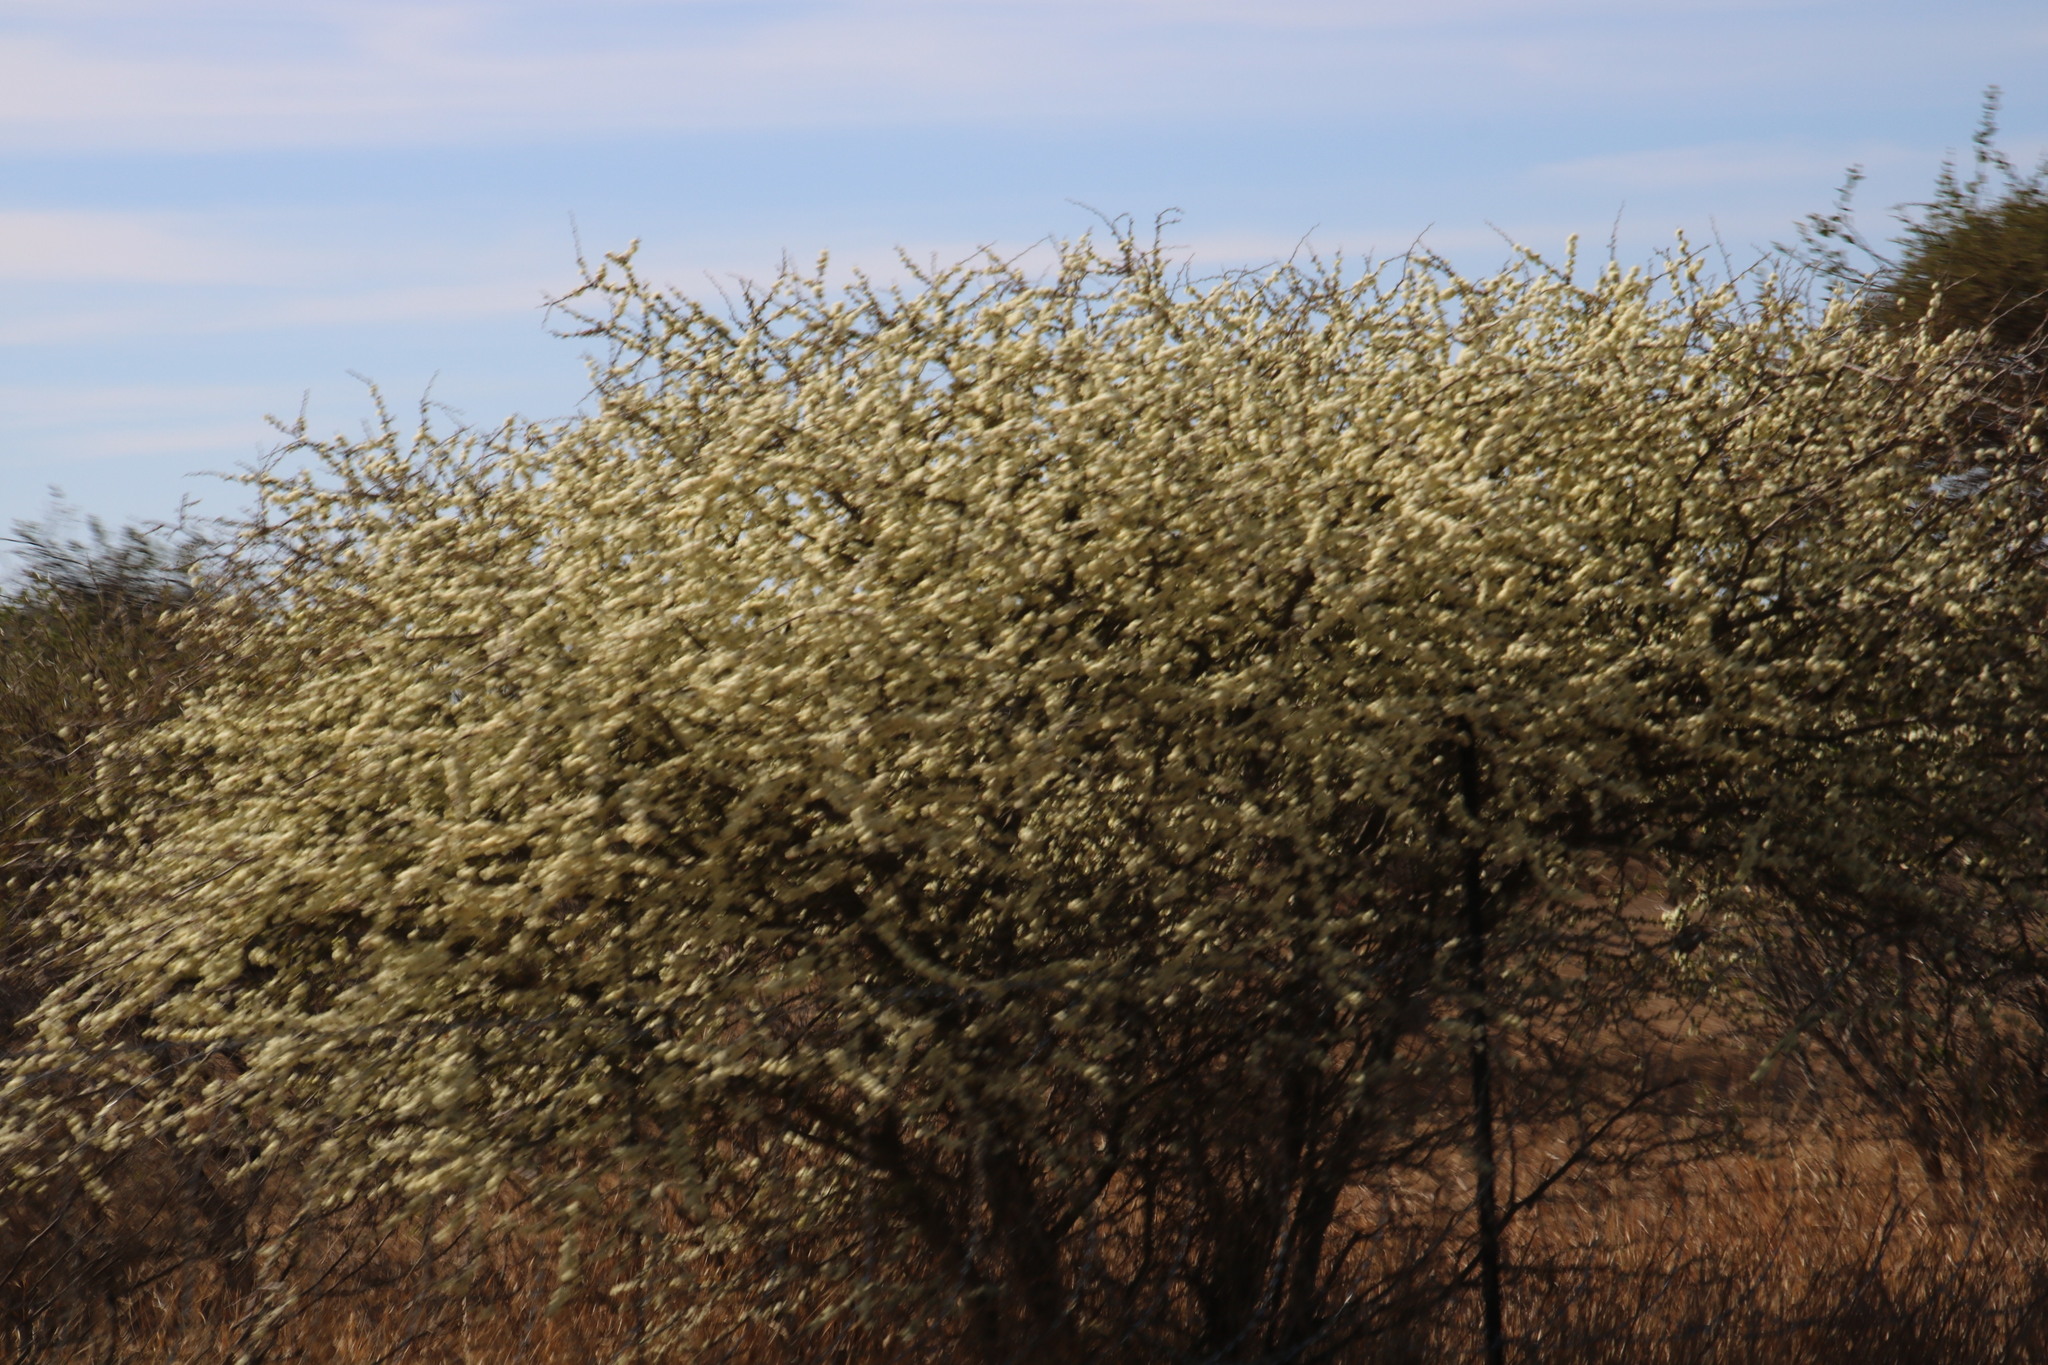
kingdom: Plantae
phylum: Tracheophyta
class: Magnoliopsida
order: Fabales
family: Fabaceae
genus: Senegalia
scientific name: Senegalia mellifera
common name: Hookthorn
